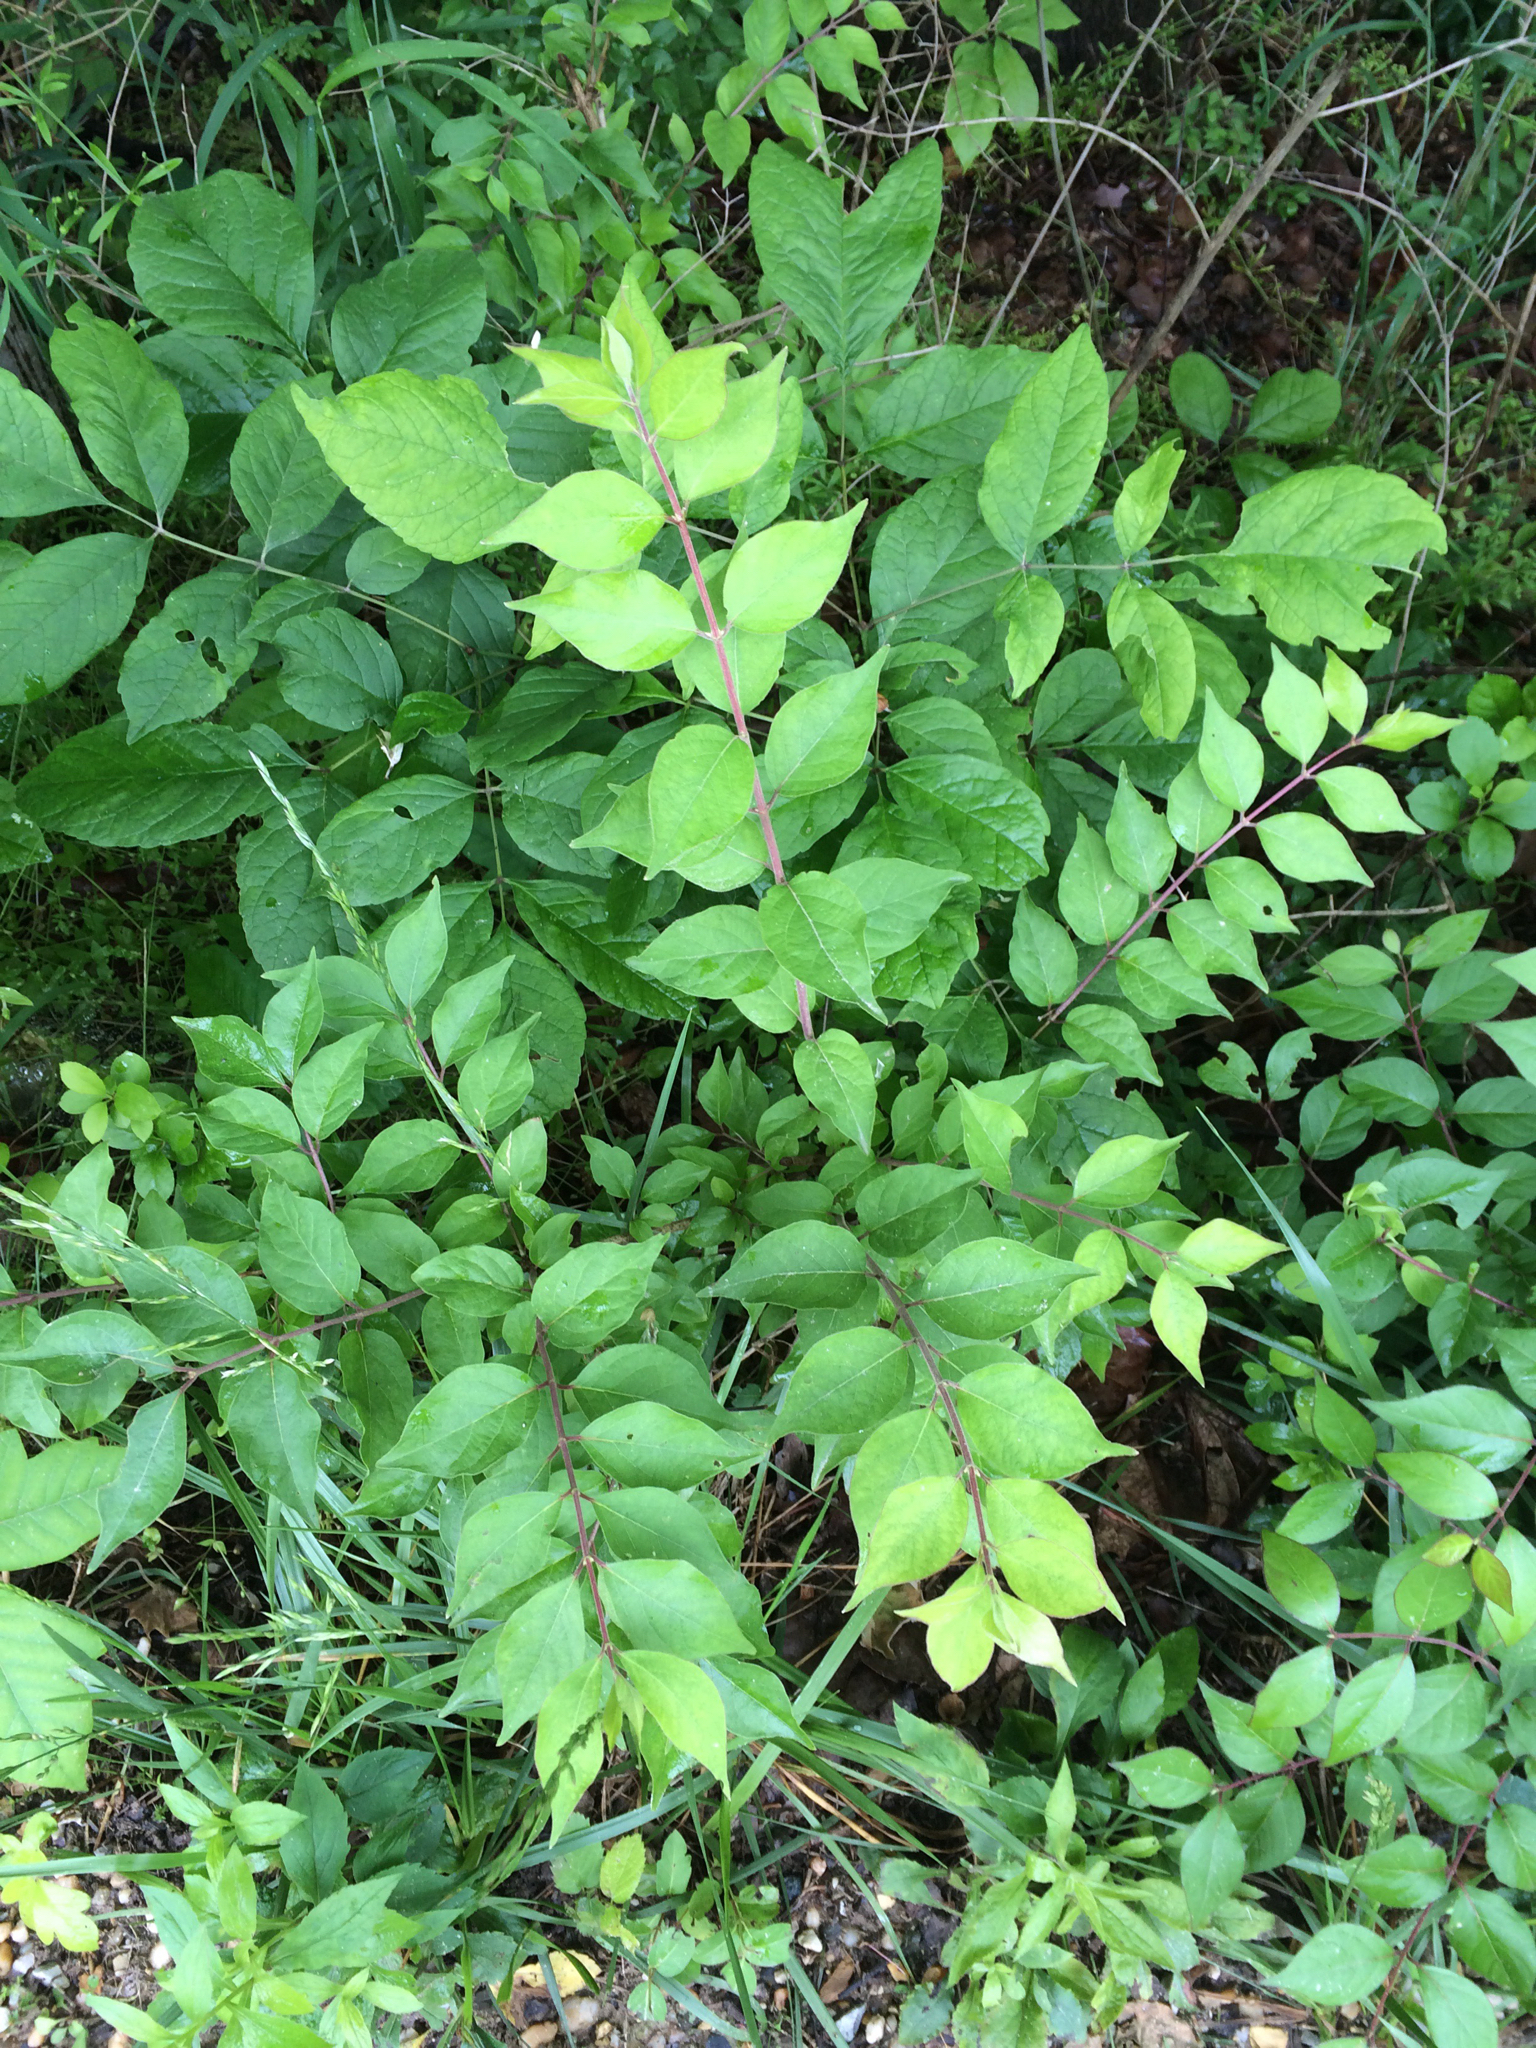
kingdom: Plantae
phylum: Tracheophyta
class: Magnoliopsida
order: Dipsacales
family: Caprifoliaceae
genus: Lonicera
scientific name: Lonicera maackii
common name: Amur honeysuckle
